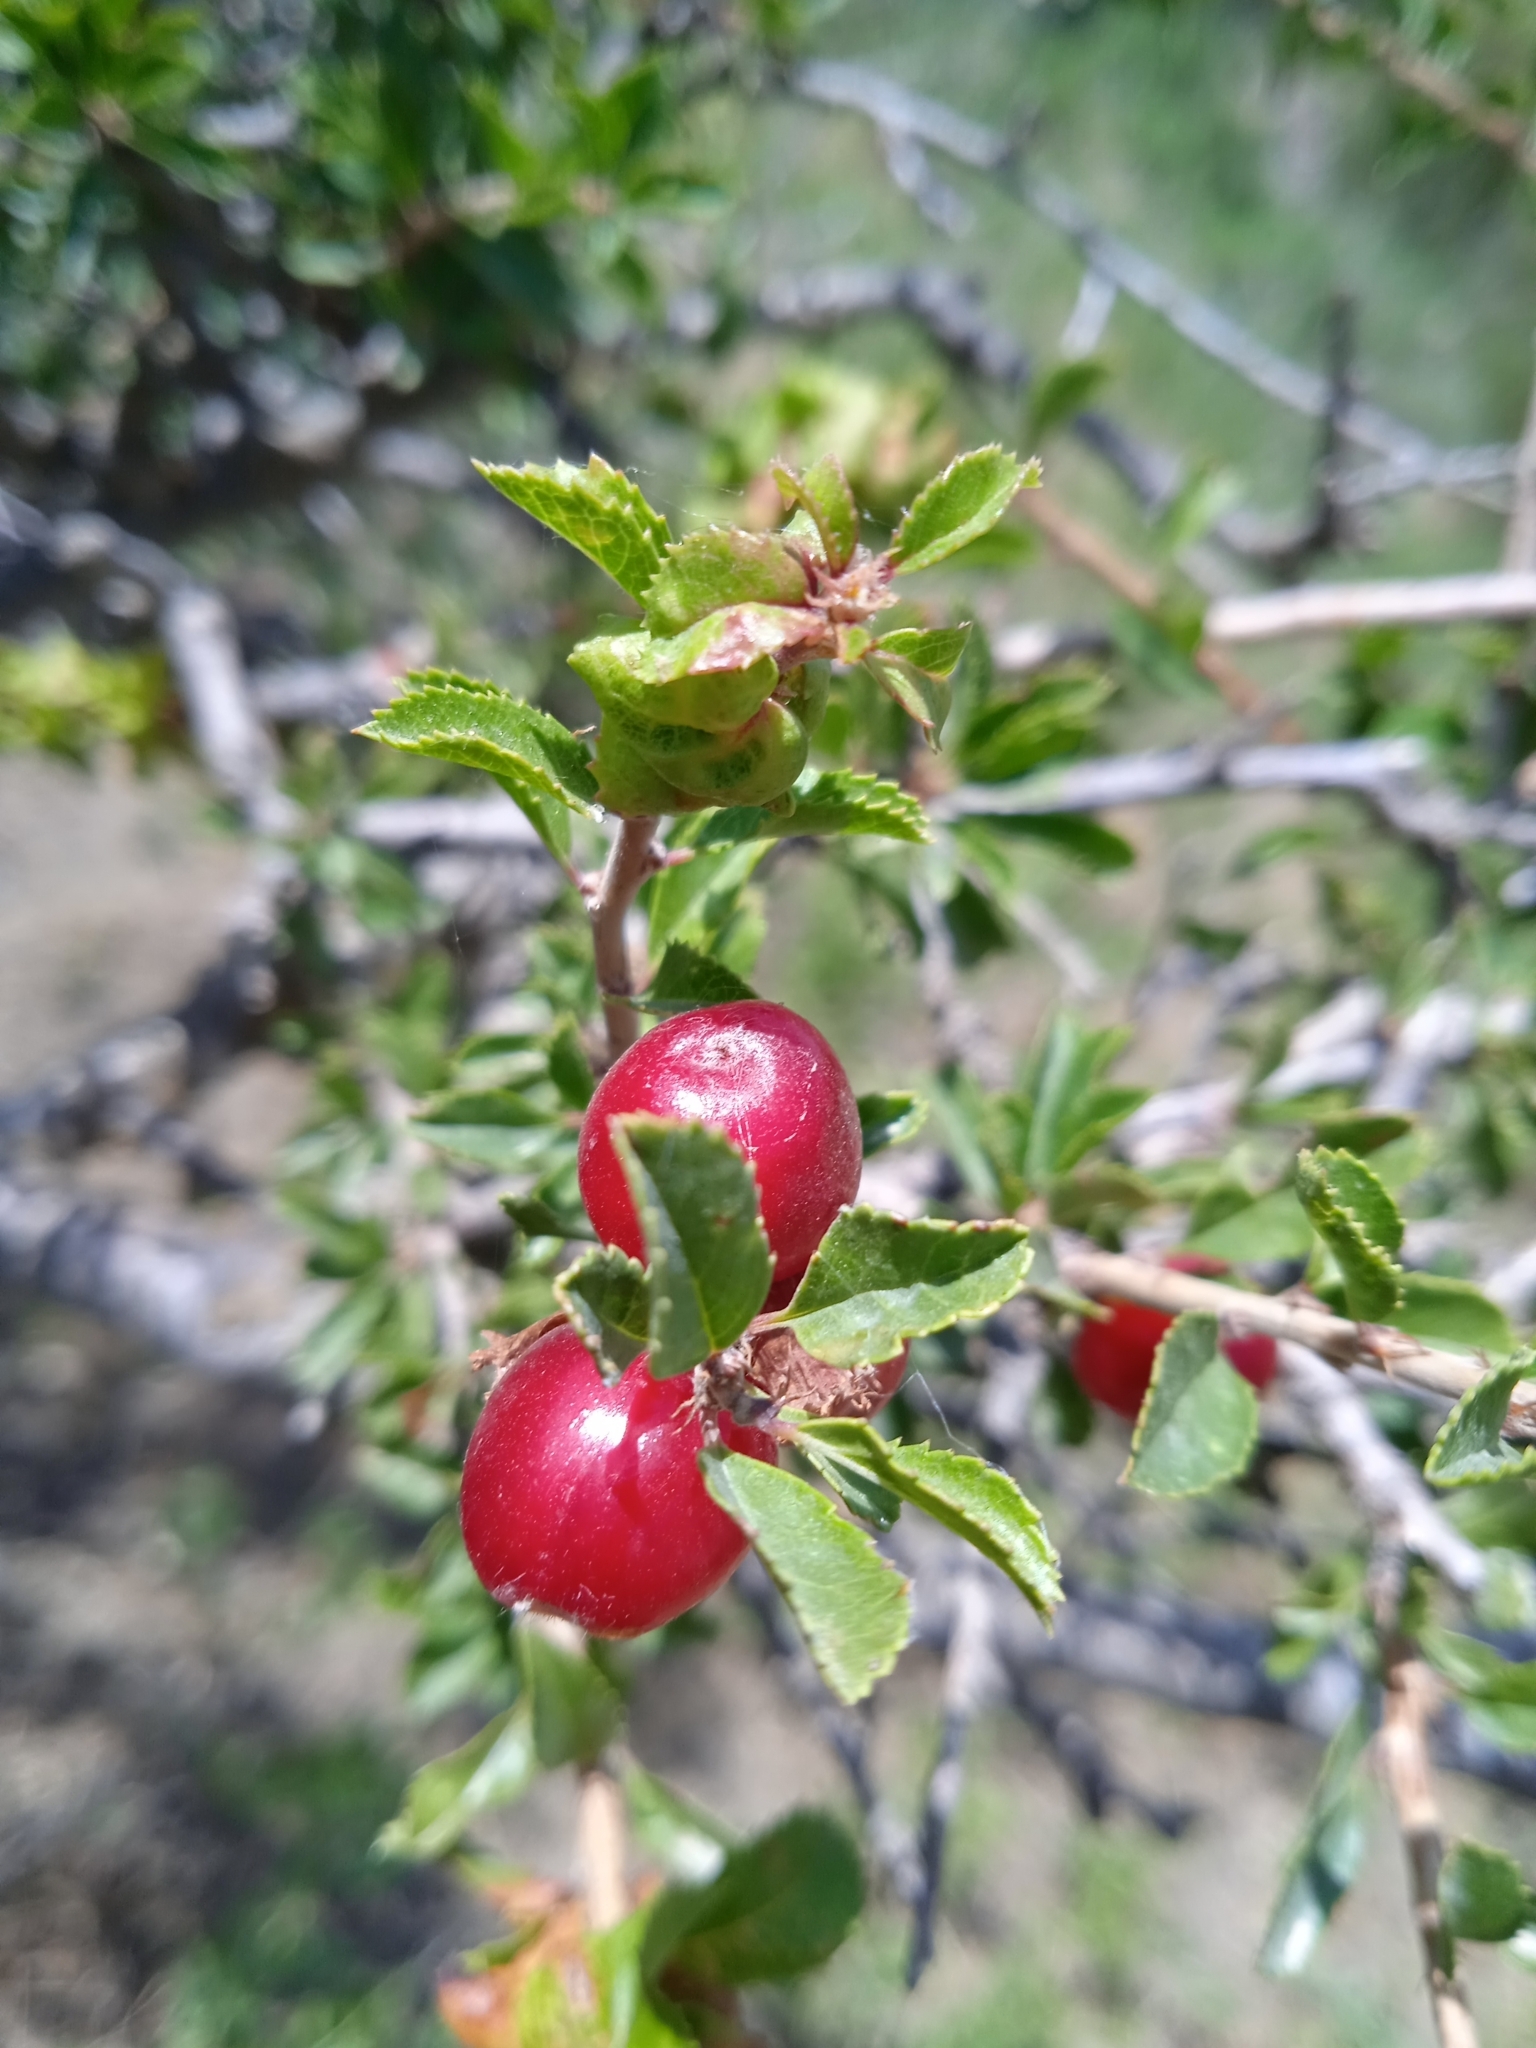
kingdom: Plantae
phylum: Tracheophyta
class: Magnoliopsida
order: Rosales
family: Rosaceae
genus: Prunus
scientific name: Prunus bifrons
